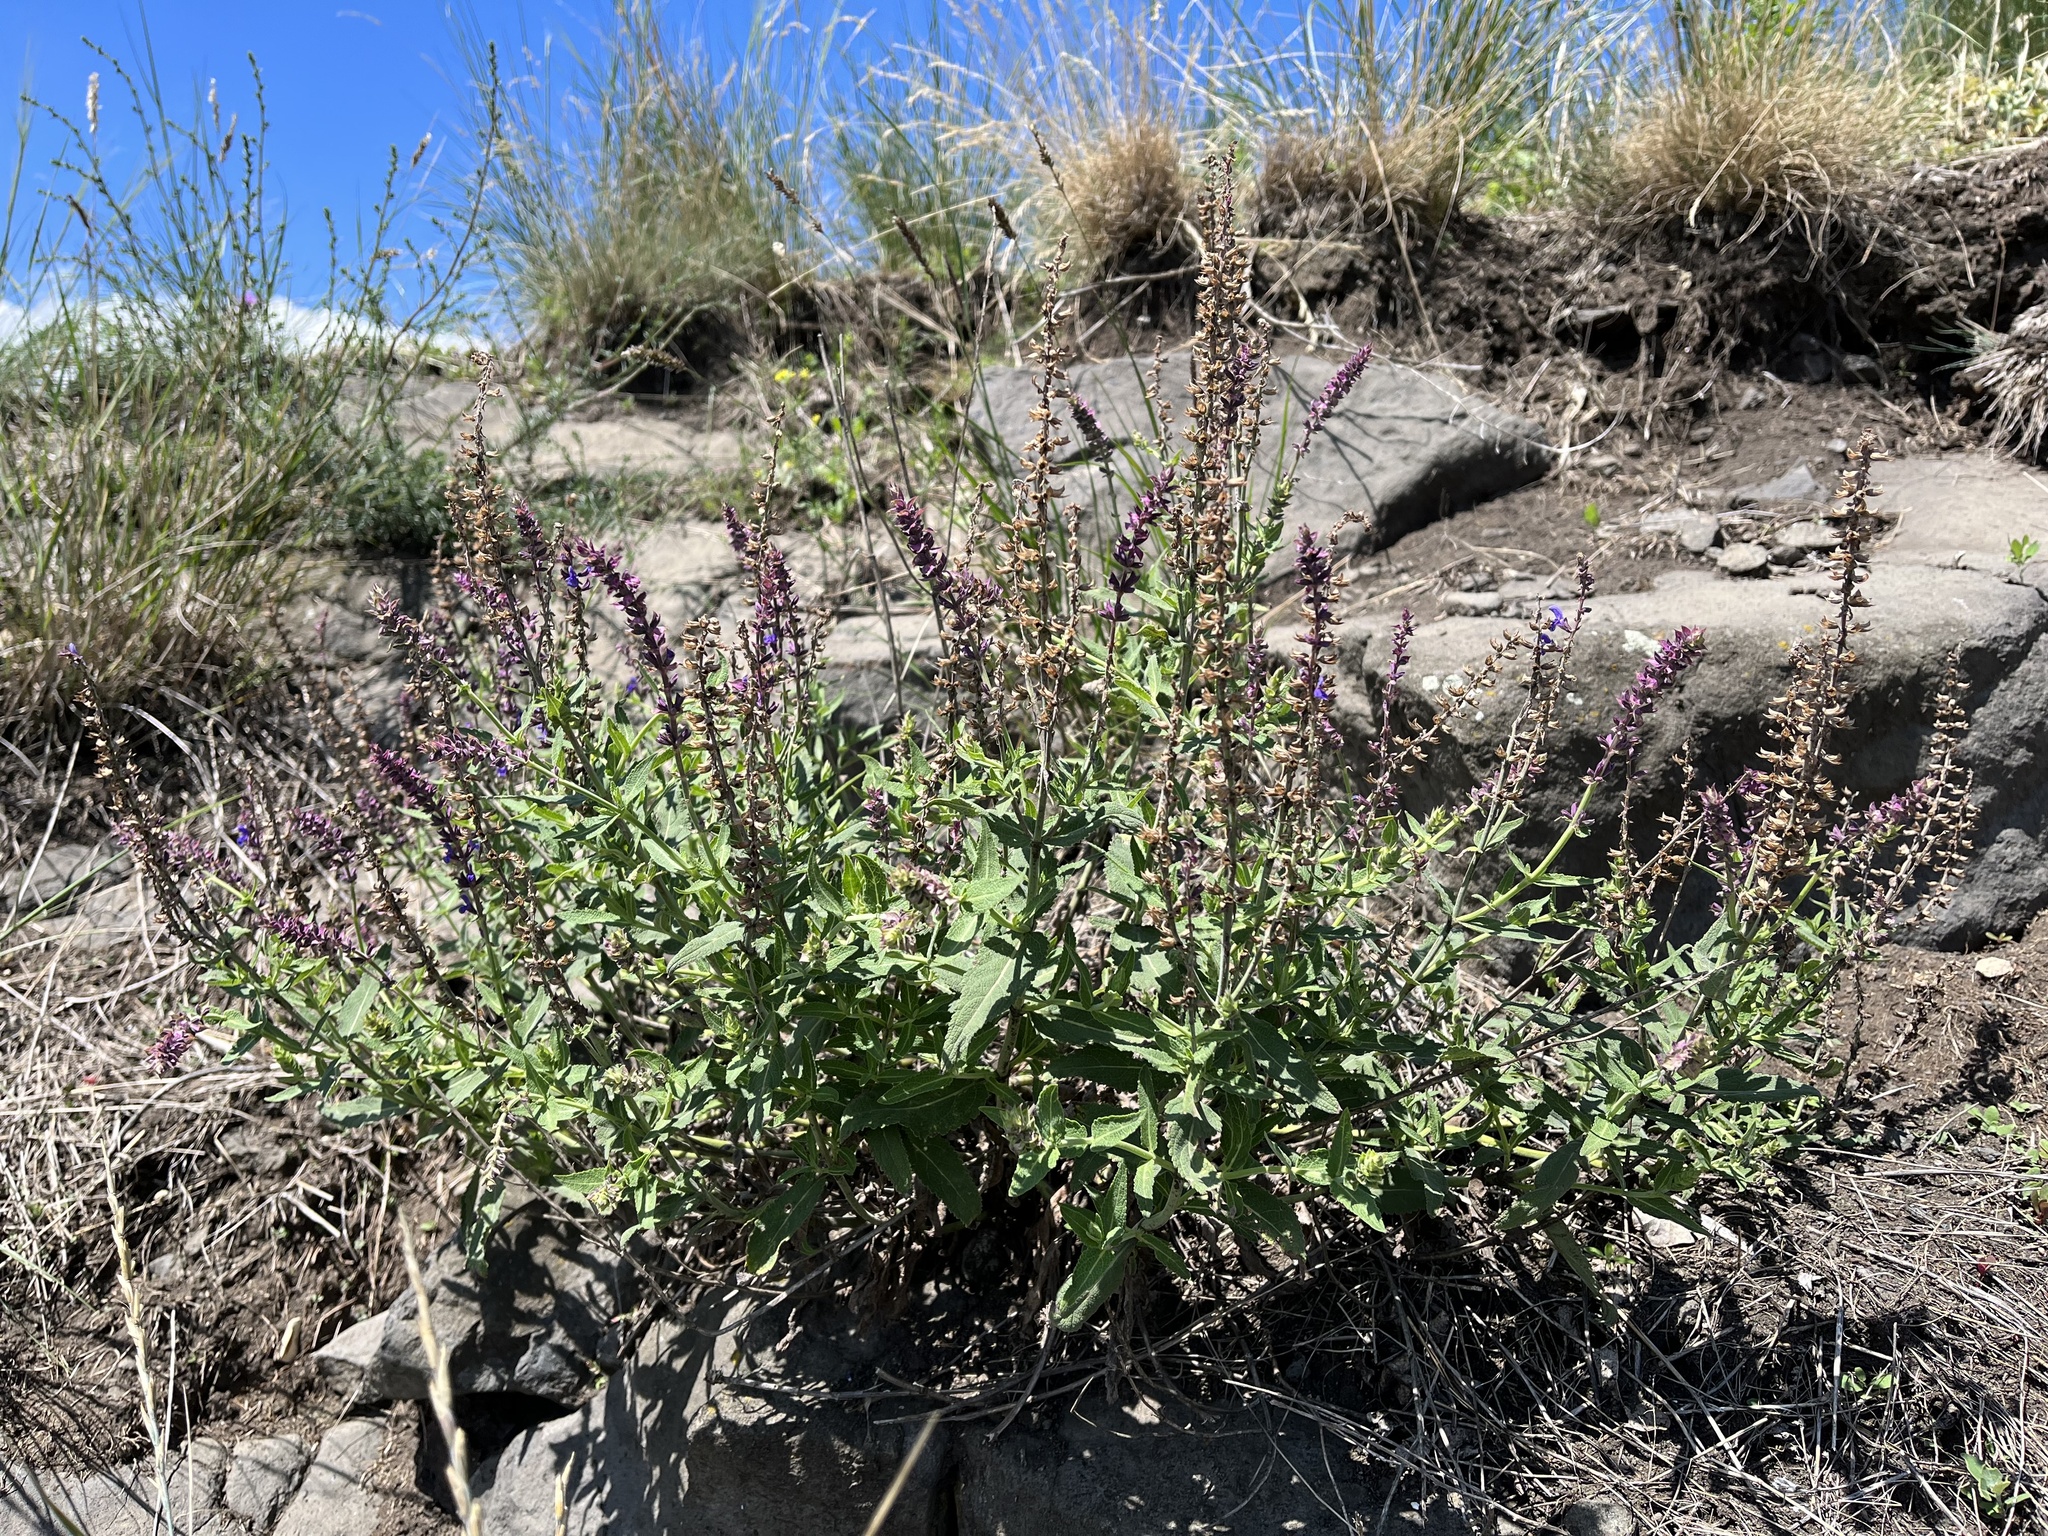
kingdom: Plantae
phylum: Tracheophyta
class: Magnoliopsida
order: Lamiales
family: Lamiaceae
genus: Salvia
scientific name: Salvia nemorosa
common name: Balkan clary
